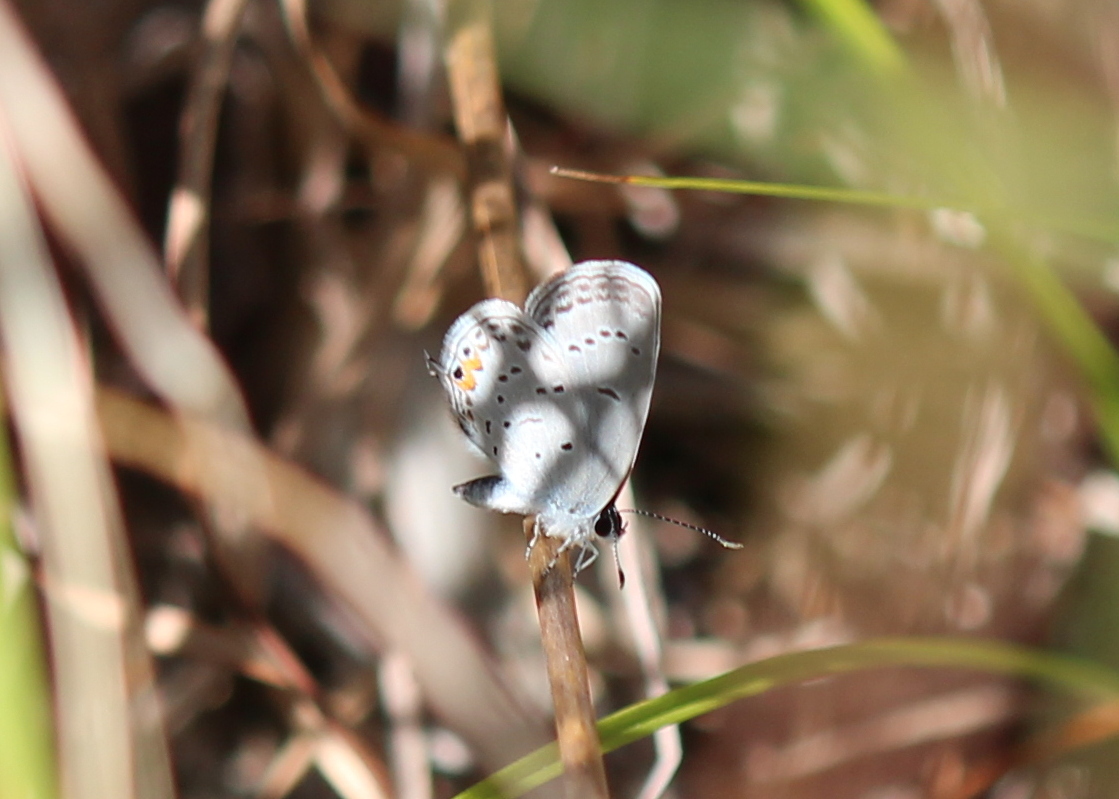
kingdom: Animalia
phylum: Arthropoda
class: Insecta
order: Lepidoptera
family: Lycaenidae
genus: Elkalyce
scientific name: Elkalyce comyntas
